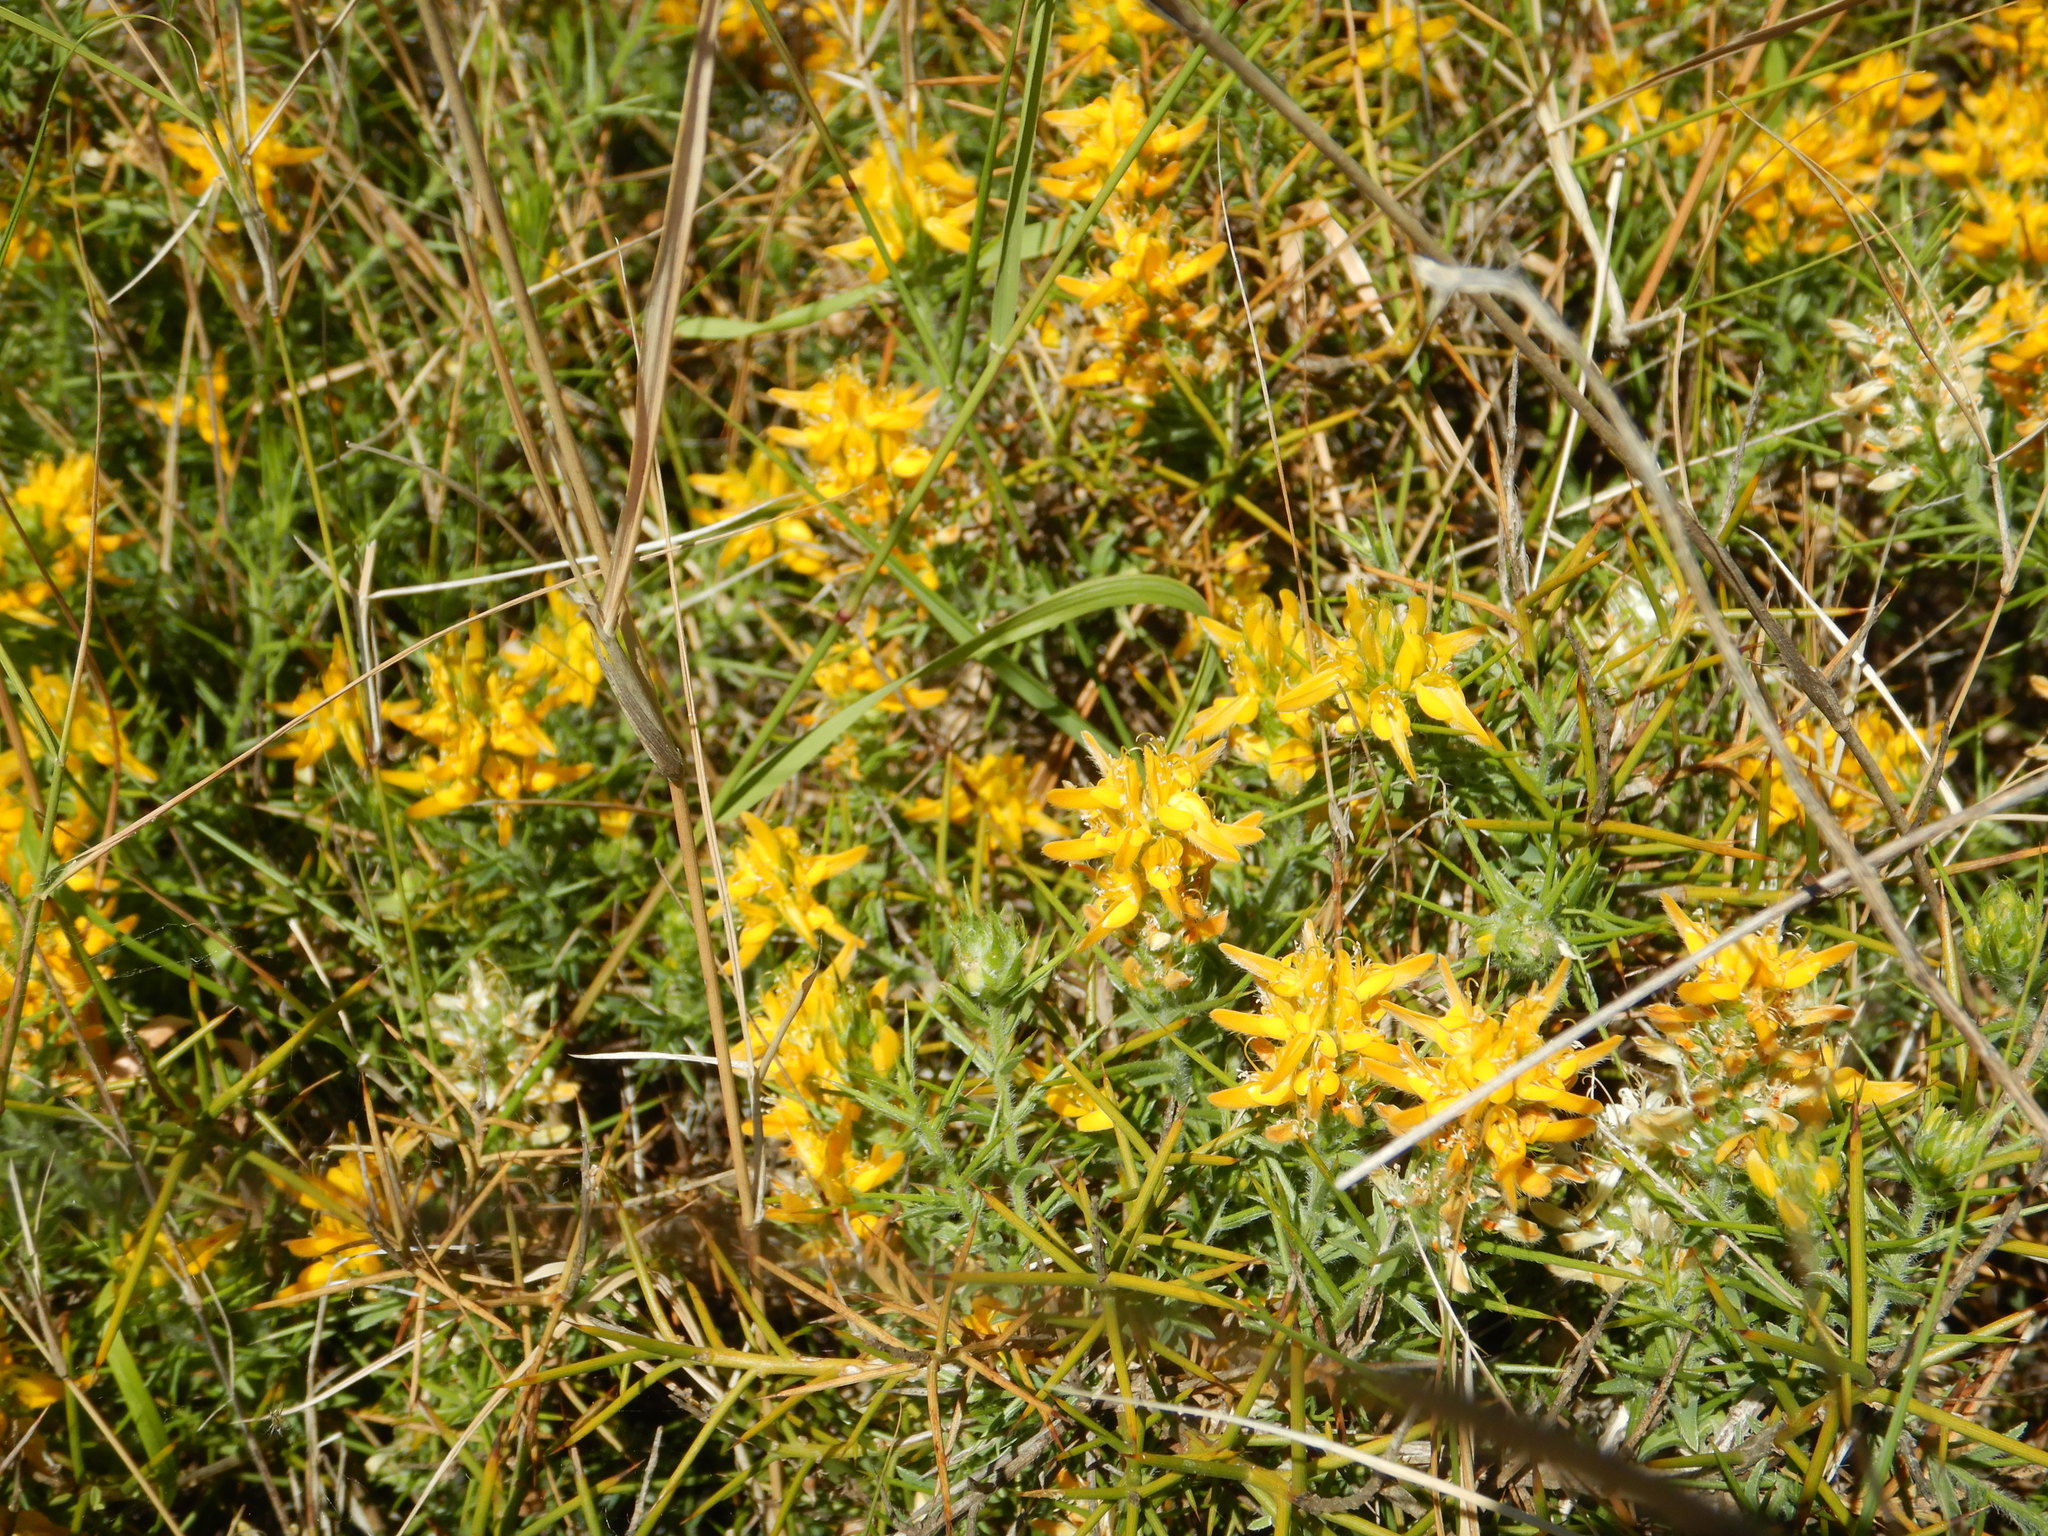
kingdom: Plantae
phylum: Tracheophyta
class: Magnoliopsida
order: Fabales
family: Fabaceae
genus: Genista
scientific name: Genista hirsuta
